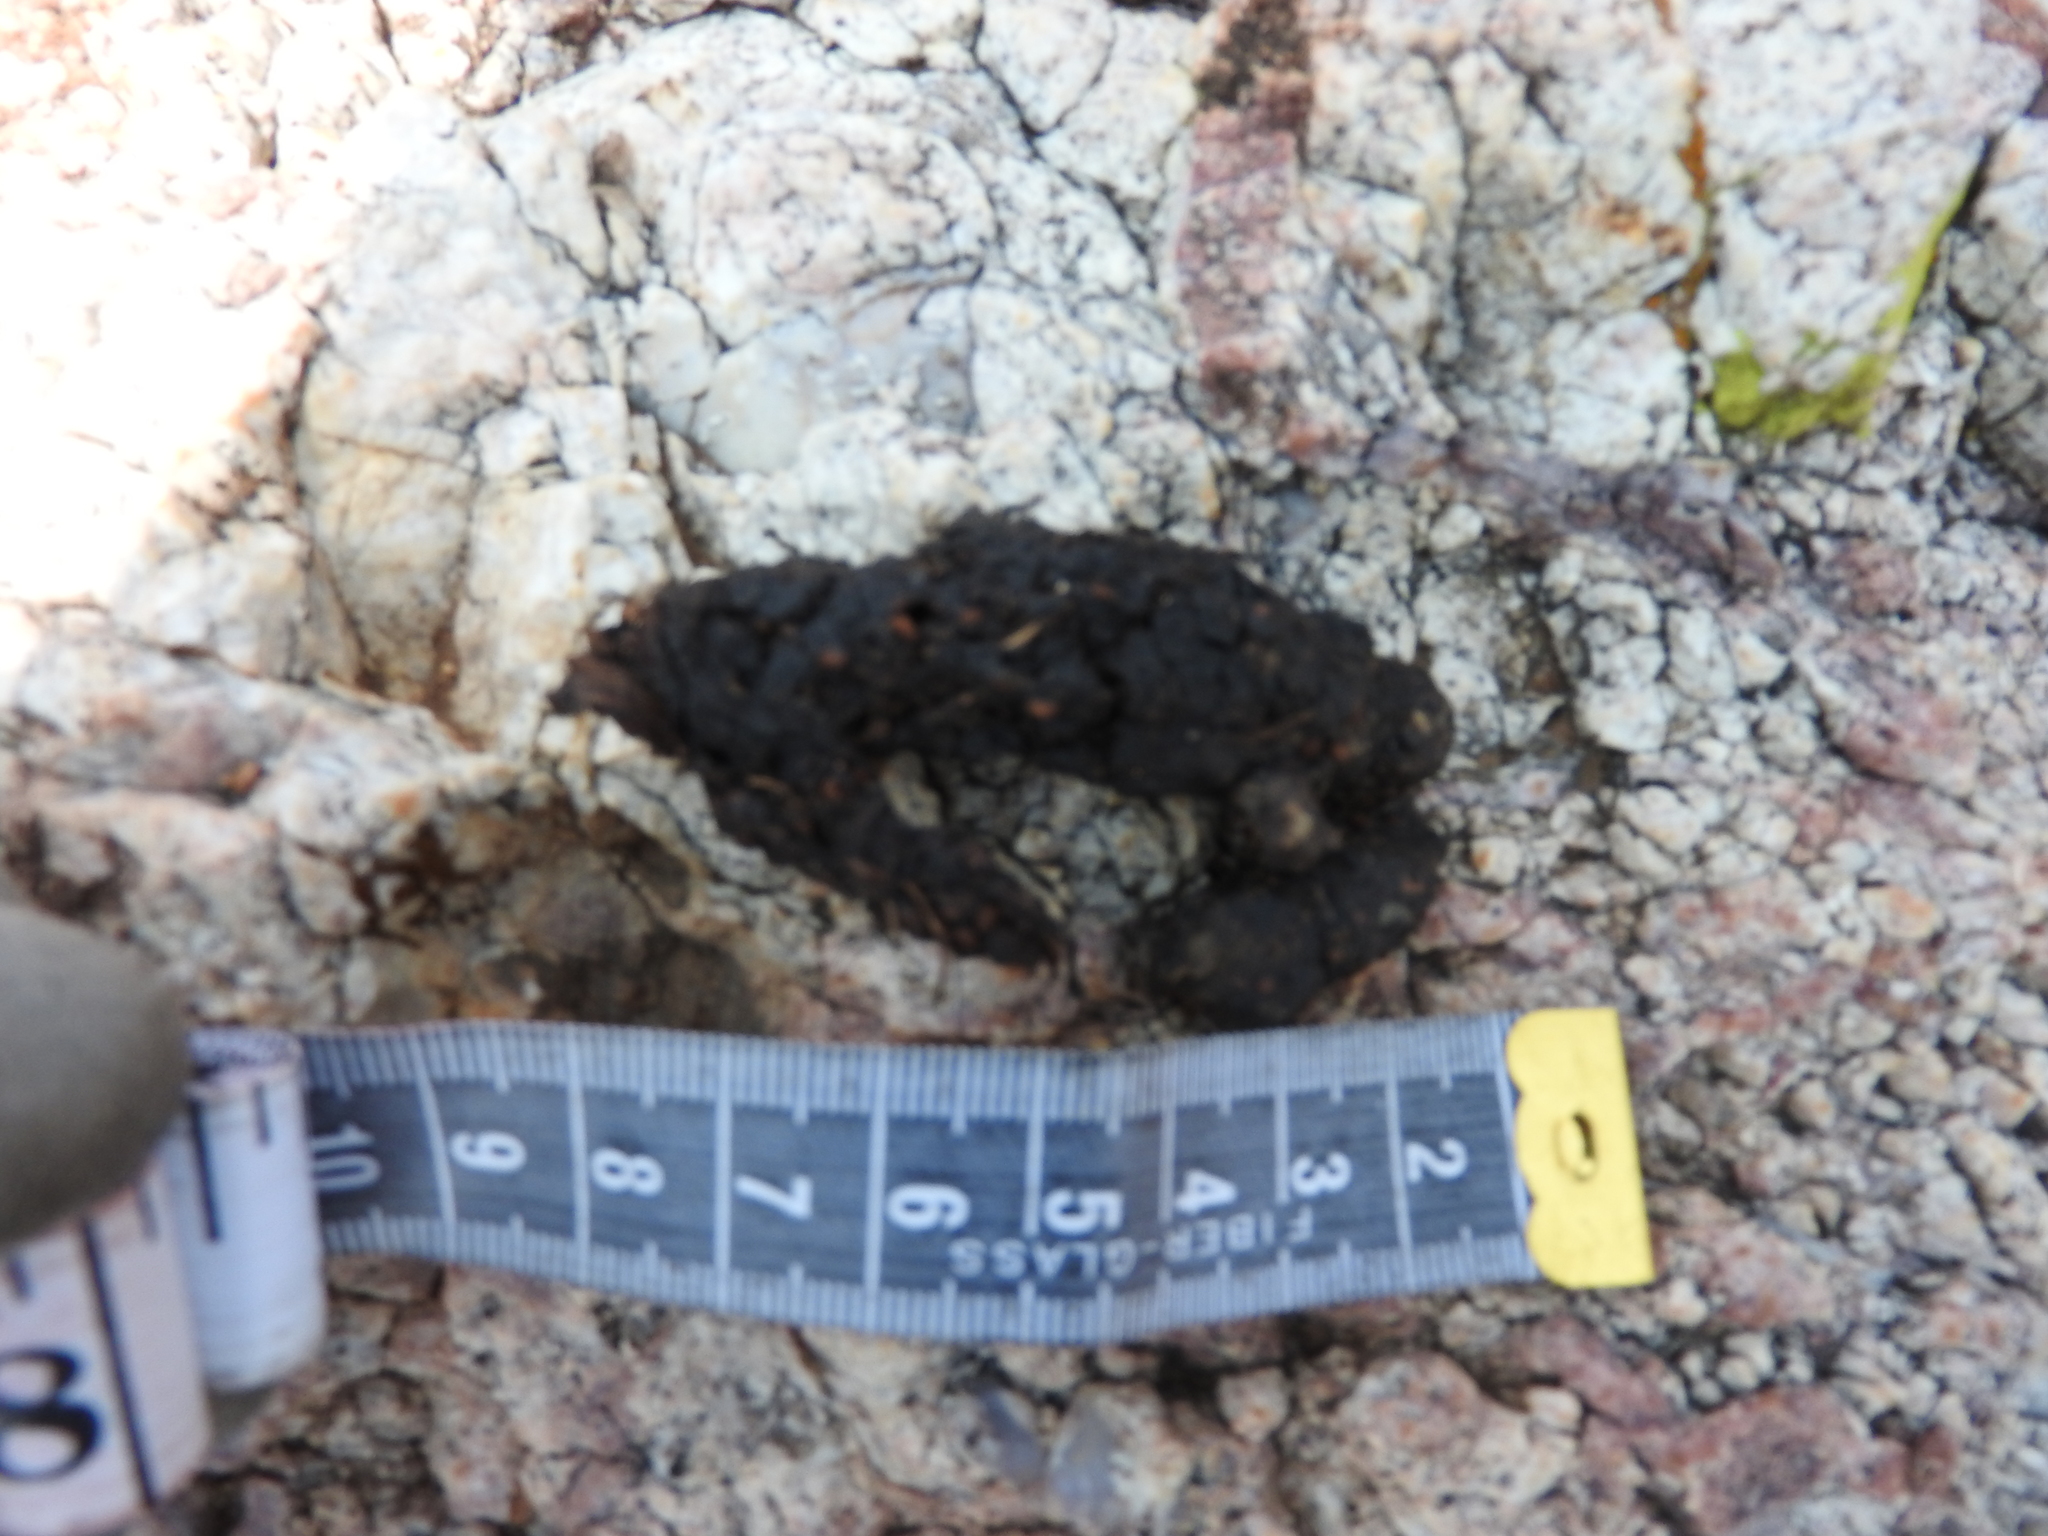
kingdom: Animalia
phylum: Chordata
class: Mammalia
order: Carnivora
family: Procyonidae
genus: Bassariscus
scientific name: Bassariscus astutus
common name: Ringtail
